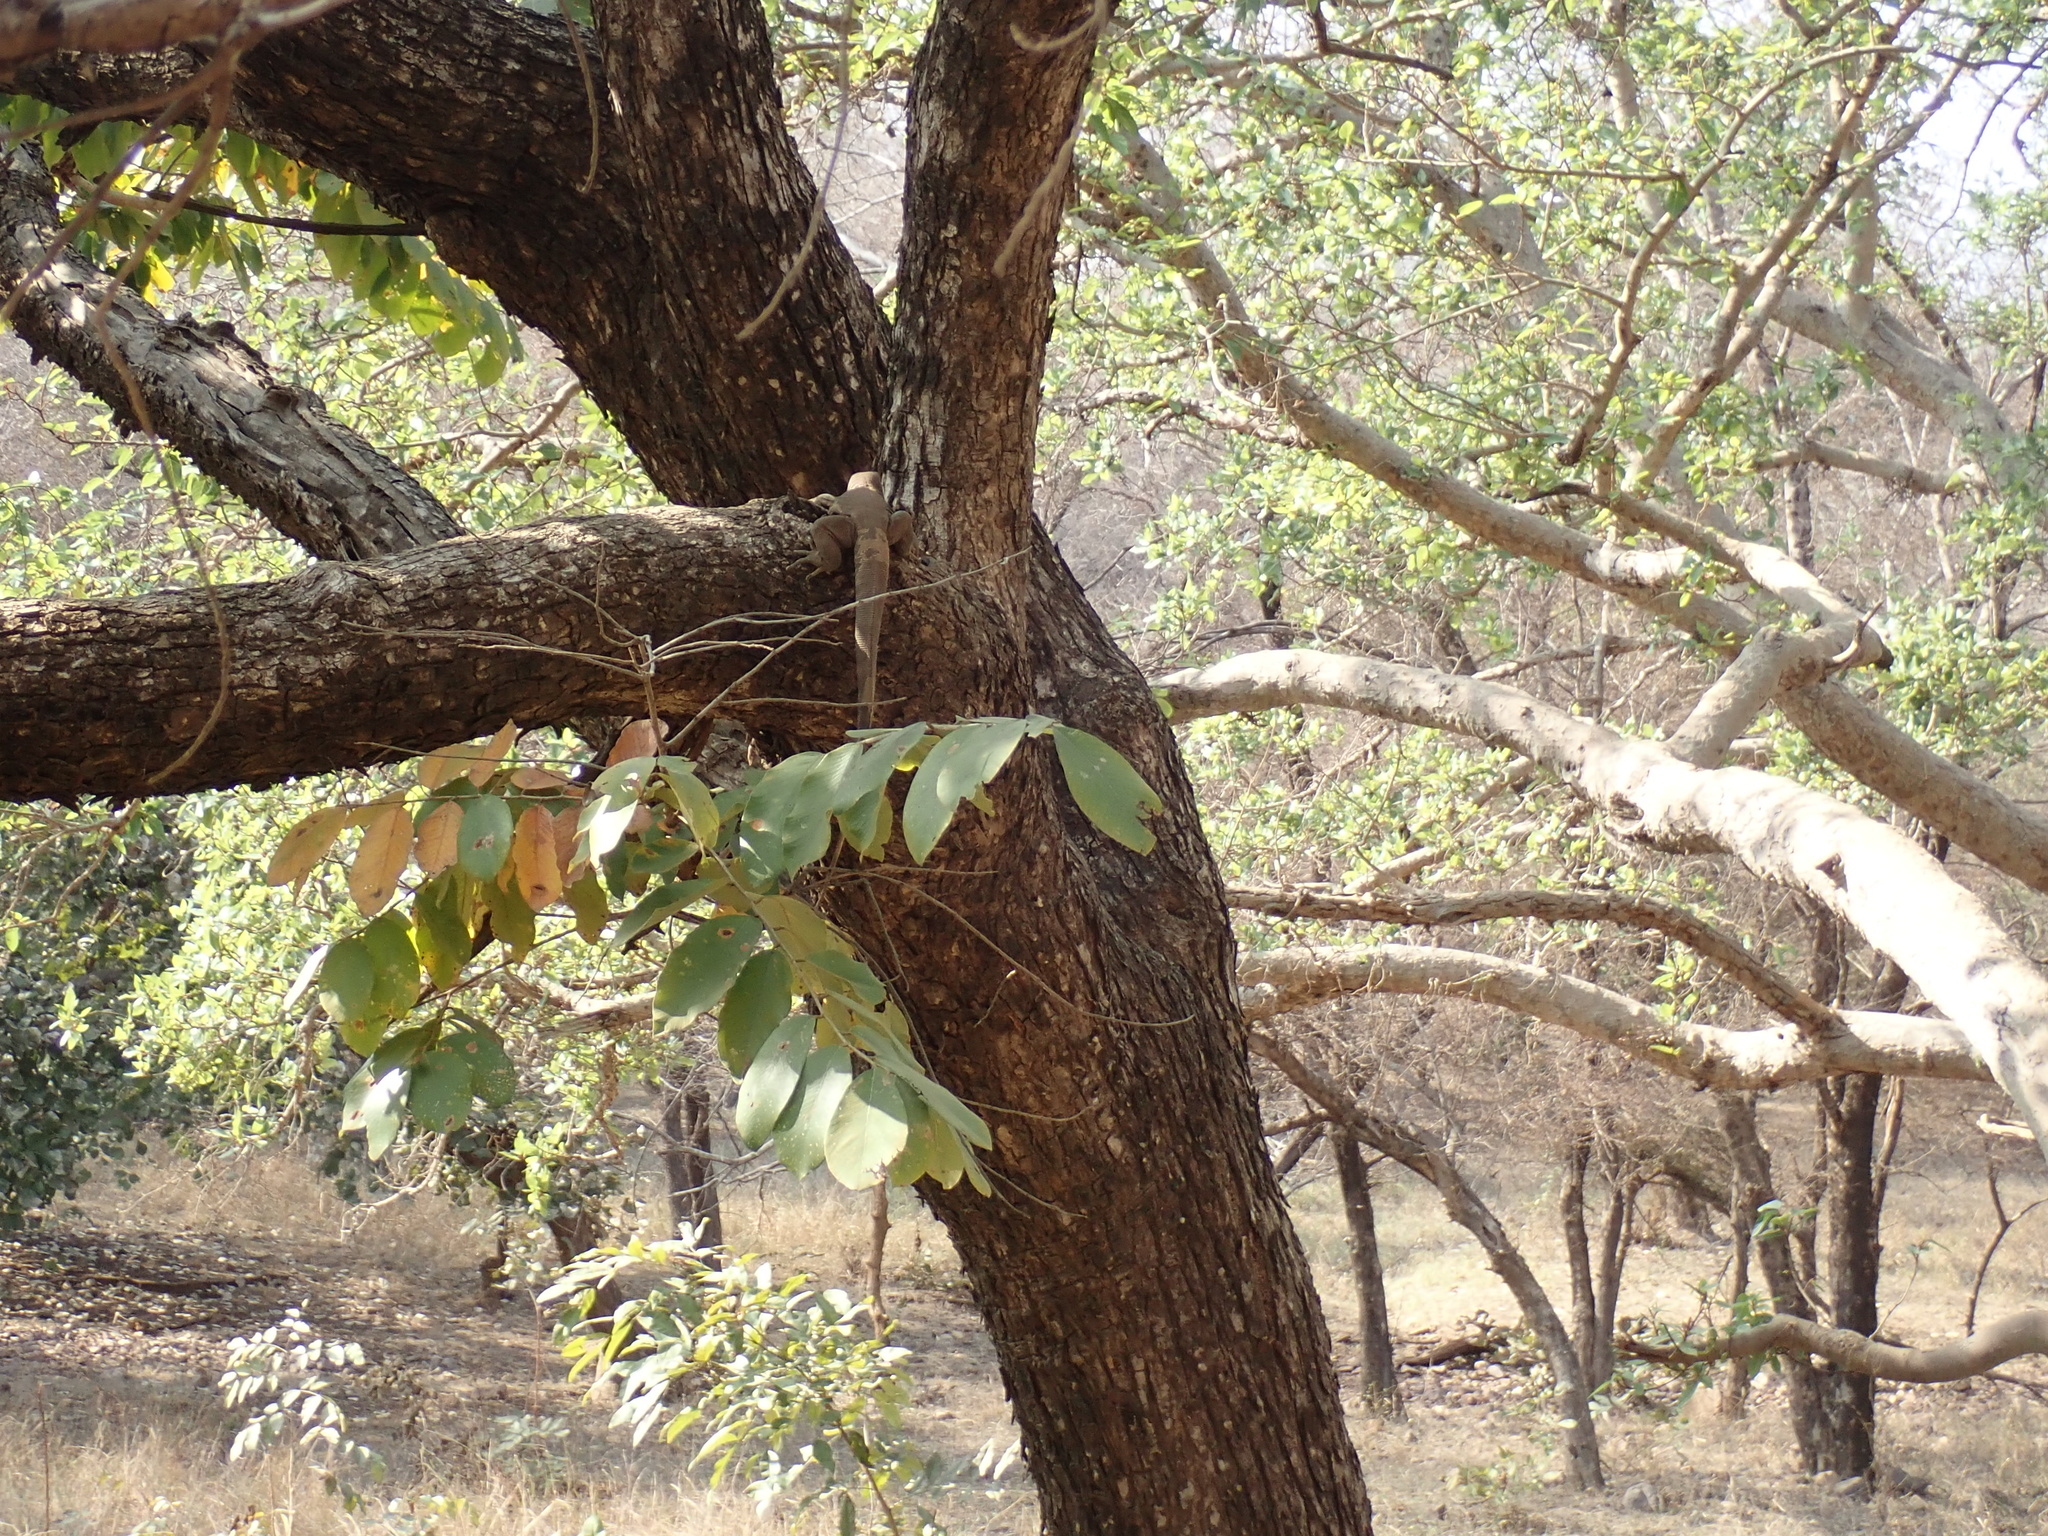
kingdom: Animalia
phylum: Chordata
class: Squamata
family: Varanidae
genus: Varanus
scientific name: Varanus bengalensis
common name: Bengal monitor
